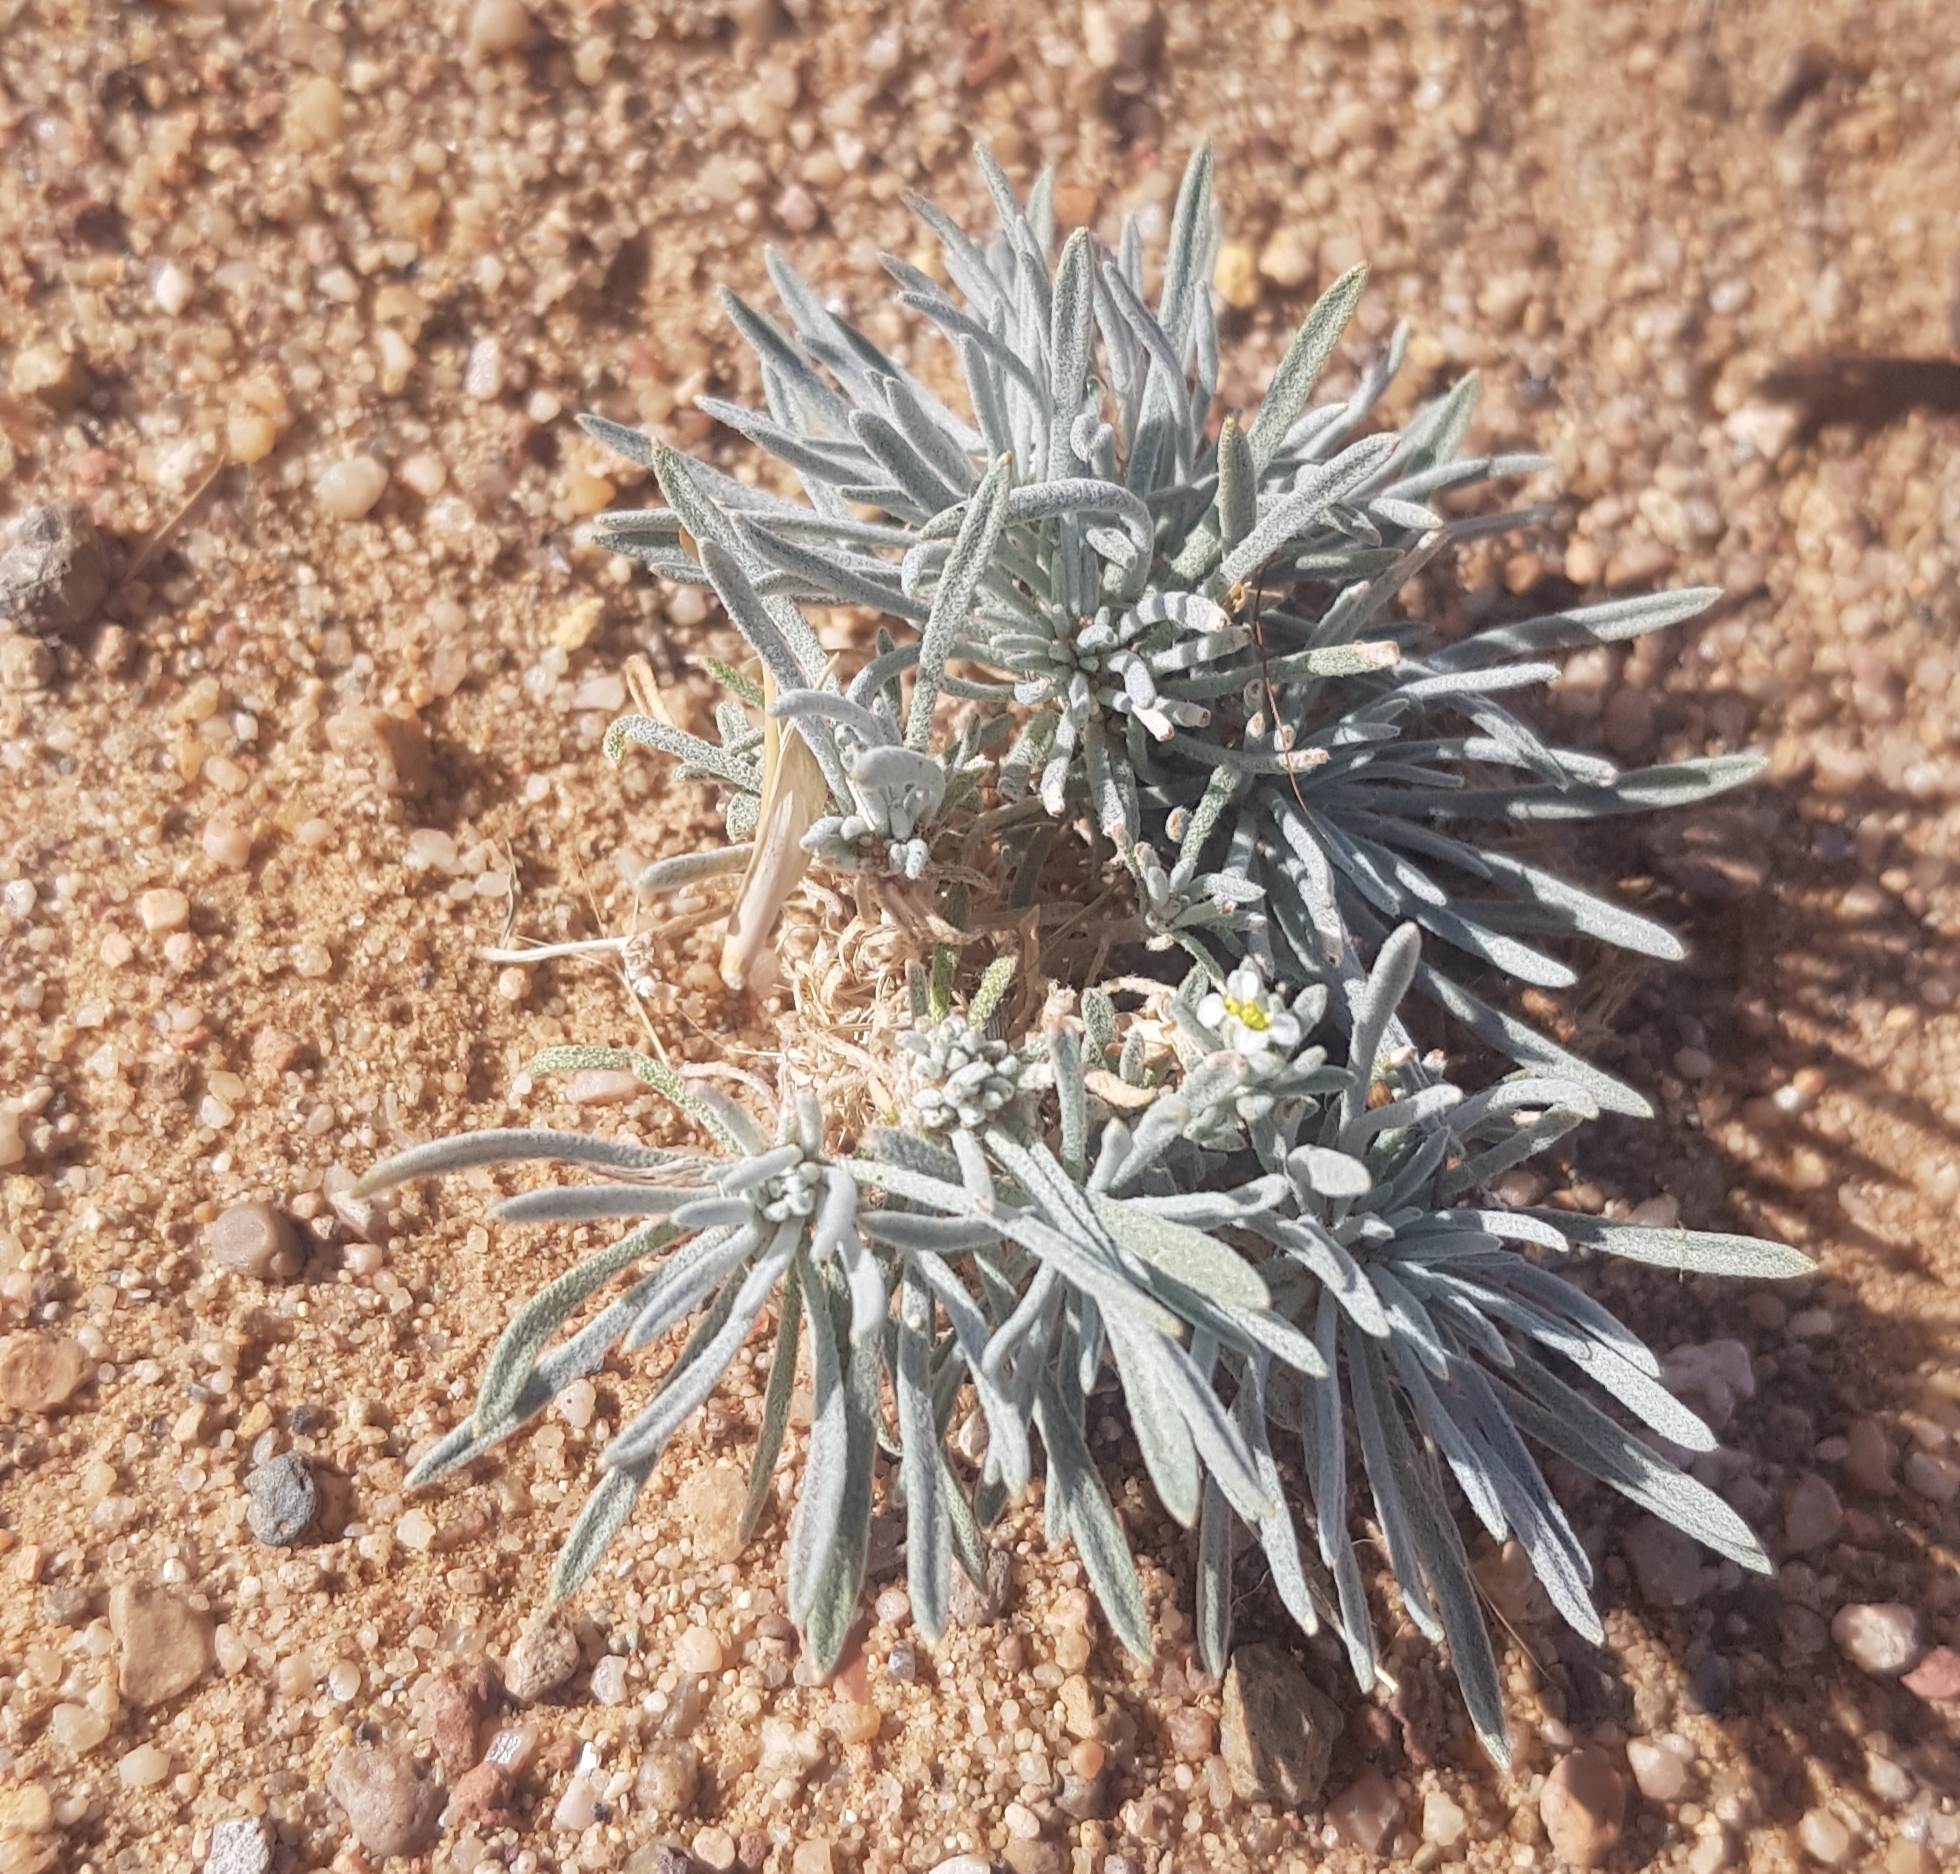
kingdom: Plantae
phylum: Tracheophyta
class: Magnoliopsida
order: Brassicales
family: Brassicaceae
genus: Stevenia
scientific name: Stevenia tenuifolia
